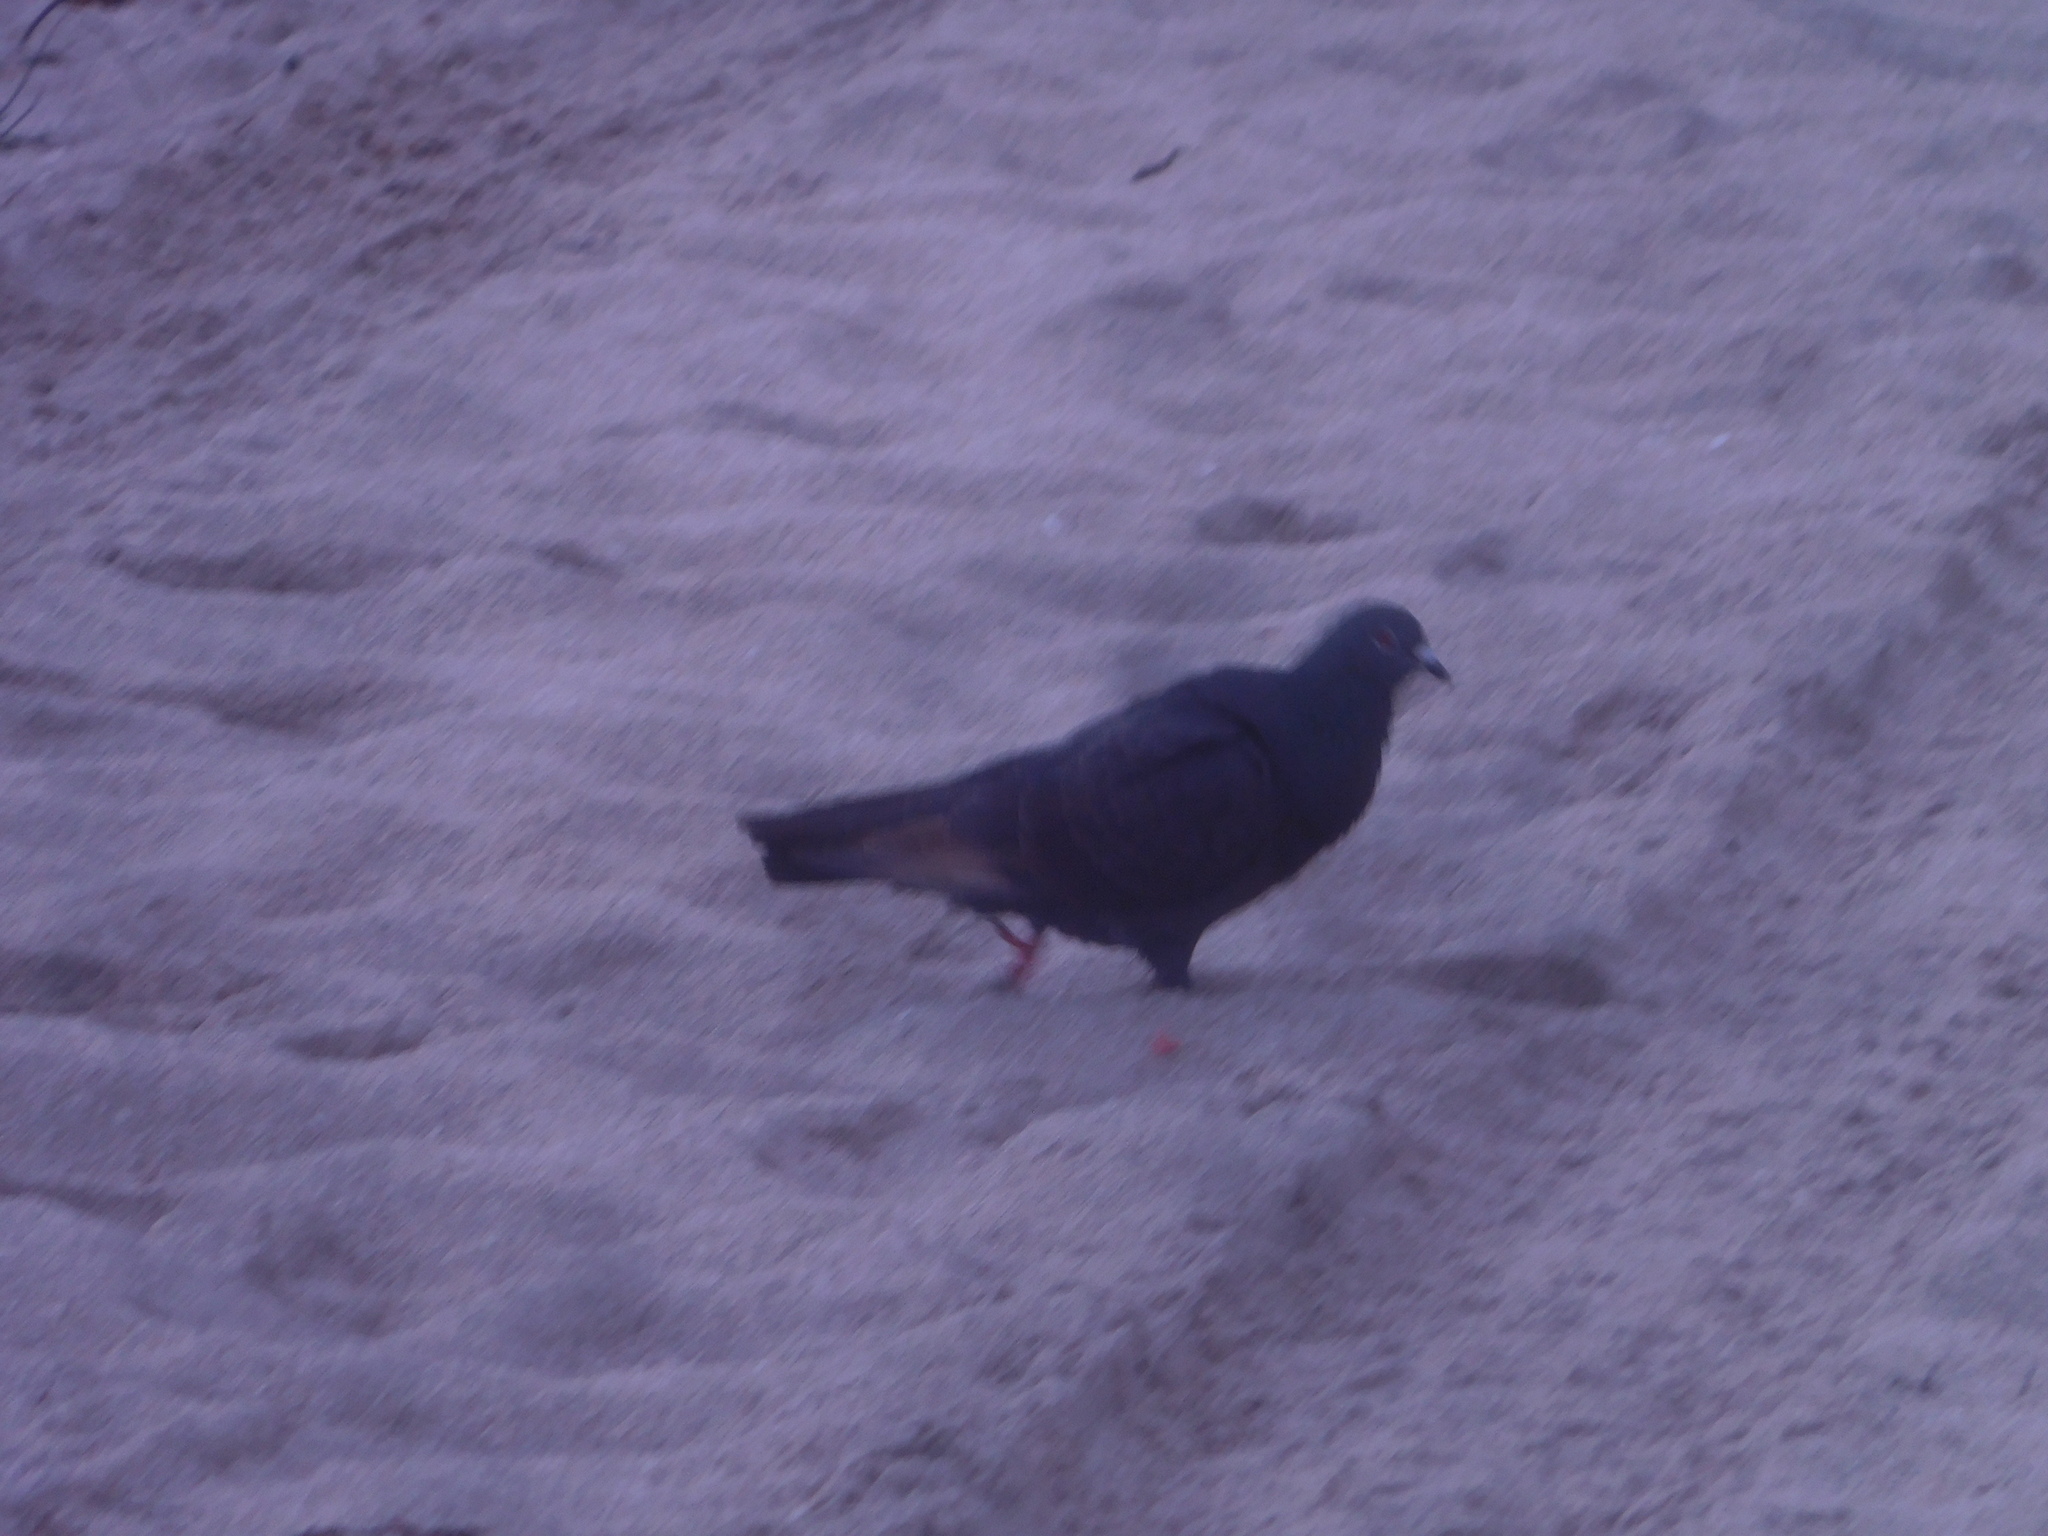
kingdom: Animalia
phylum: Chordata
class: Aves
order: Columbiformes
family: Columbidae
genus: Columba
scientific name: Columba livia
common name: Rock pigeon
